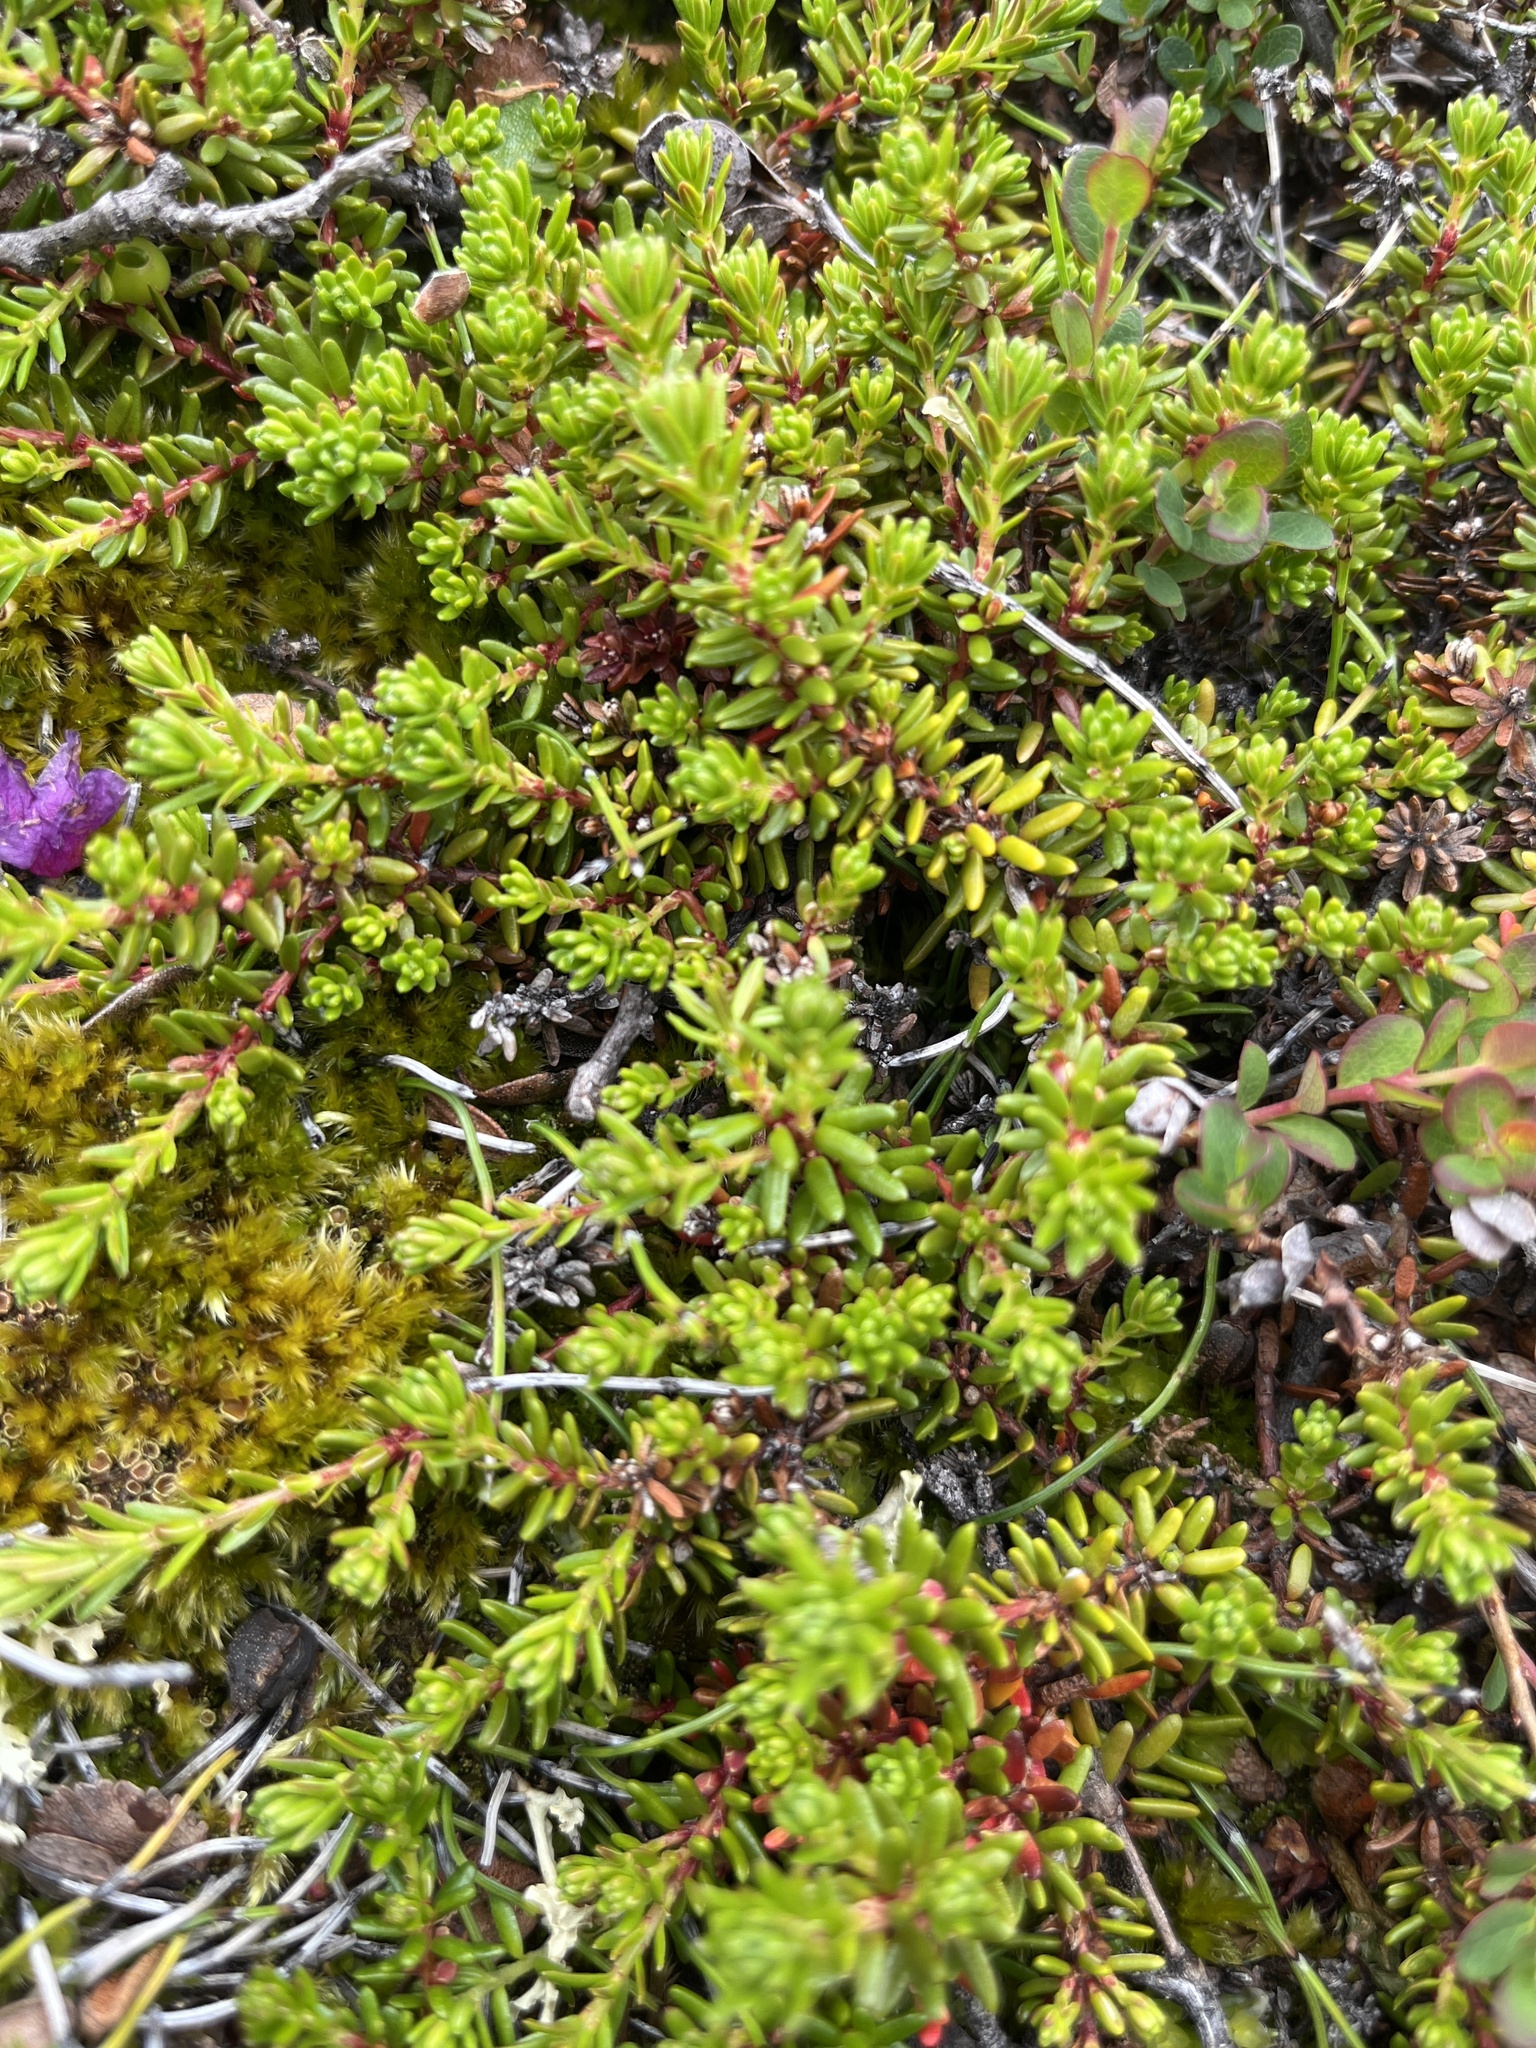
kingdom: Plantae
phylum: Tracheophyta
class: Magnoliopsida
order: Ericales
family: Ericaceae
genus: Empetrum
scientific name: Empetrum hermaphroditum
